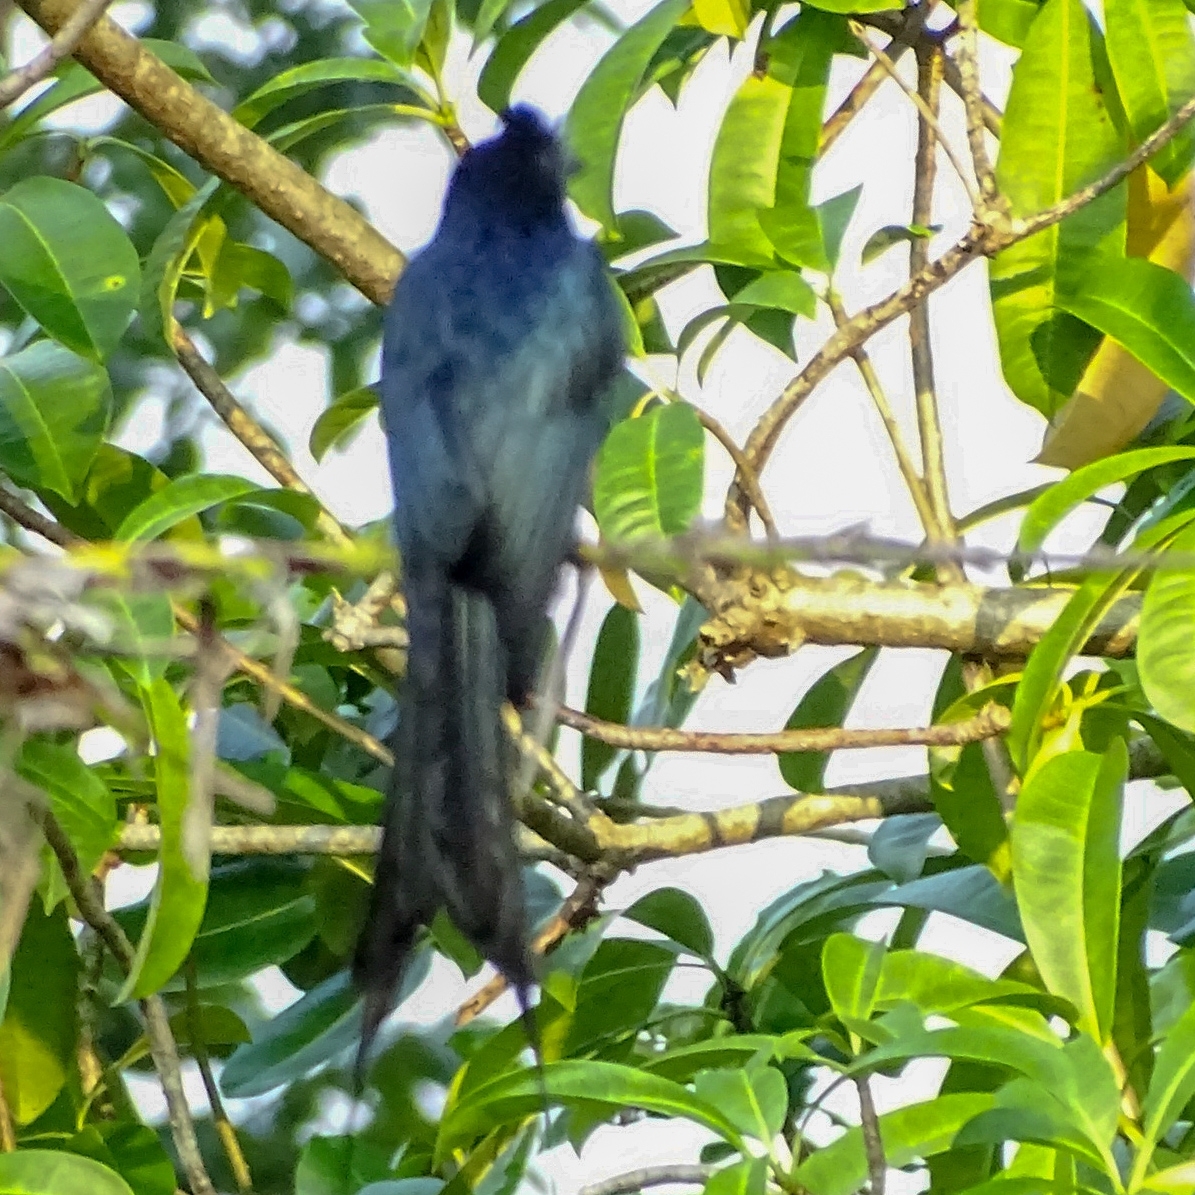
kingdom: Animalia
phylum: Chordata
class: Aves
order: Passeriformes
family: Dicruridae
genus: Dicrurus
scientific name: Dicrurus paradiseus
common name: Greater racket-tailed drongo
